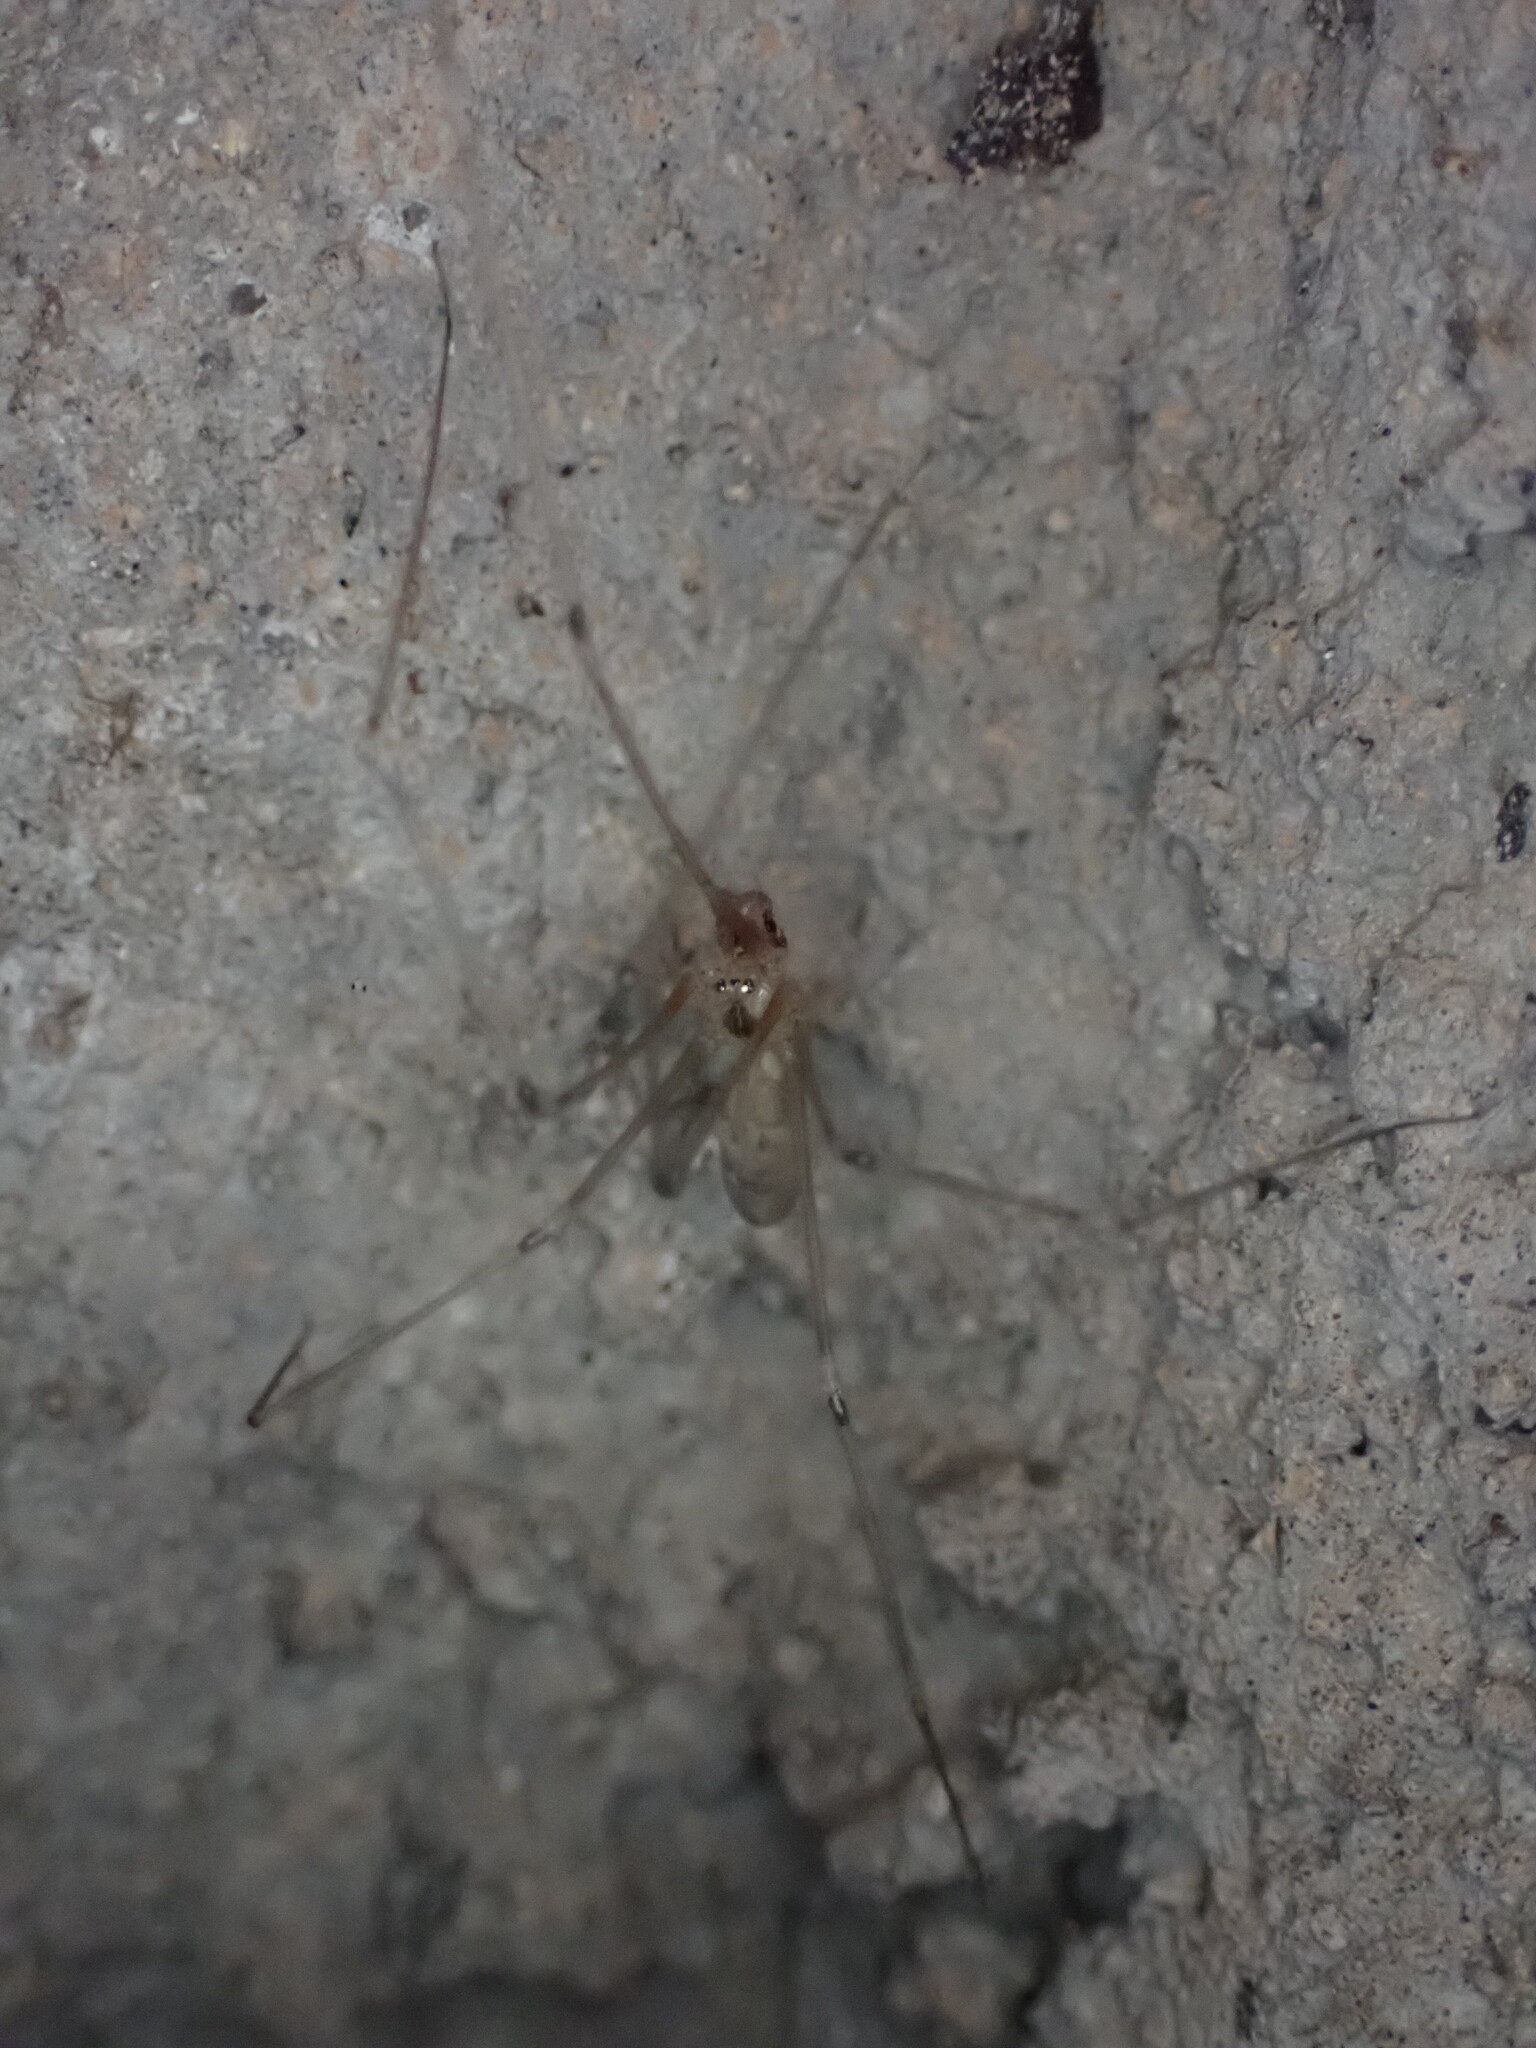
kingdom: Animalia
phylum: Arthropoda
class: Arachnida
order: Araneae
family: Pholcidae
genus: Pholcus
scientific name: Pholcus phalangioides
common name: Longbodied cellar spider
